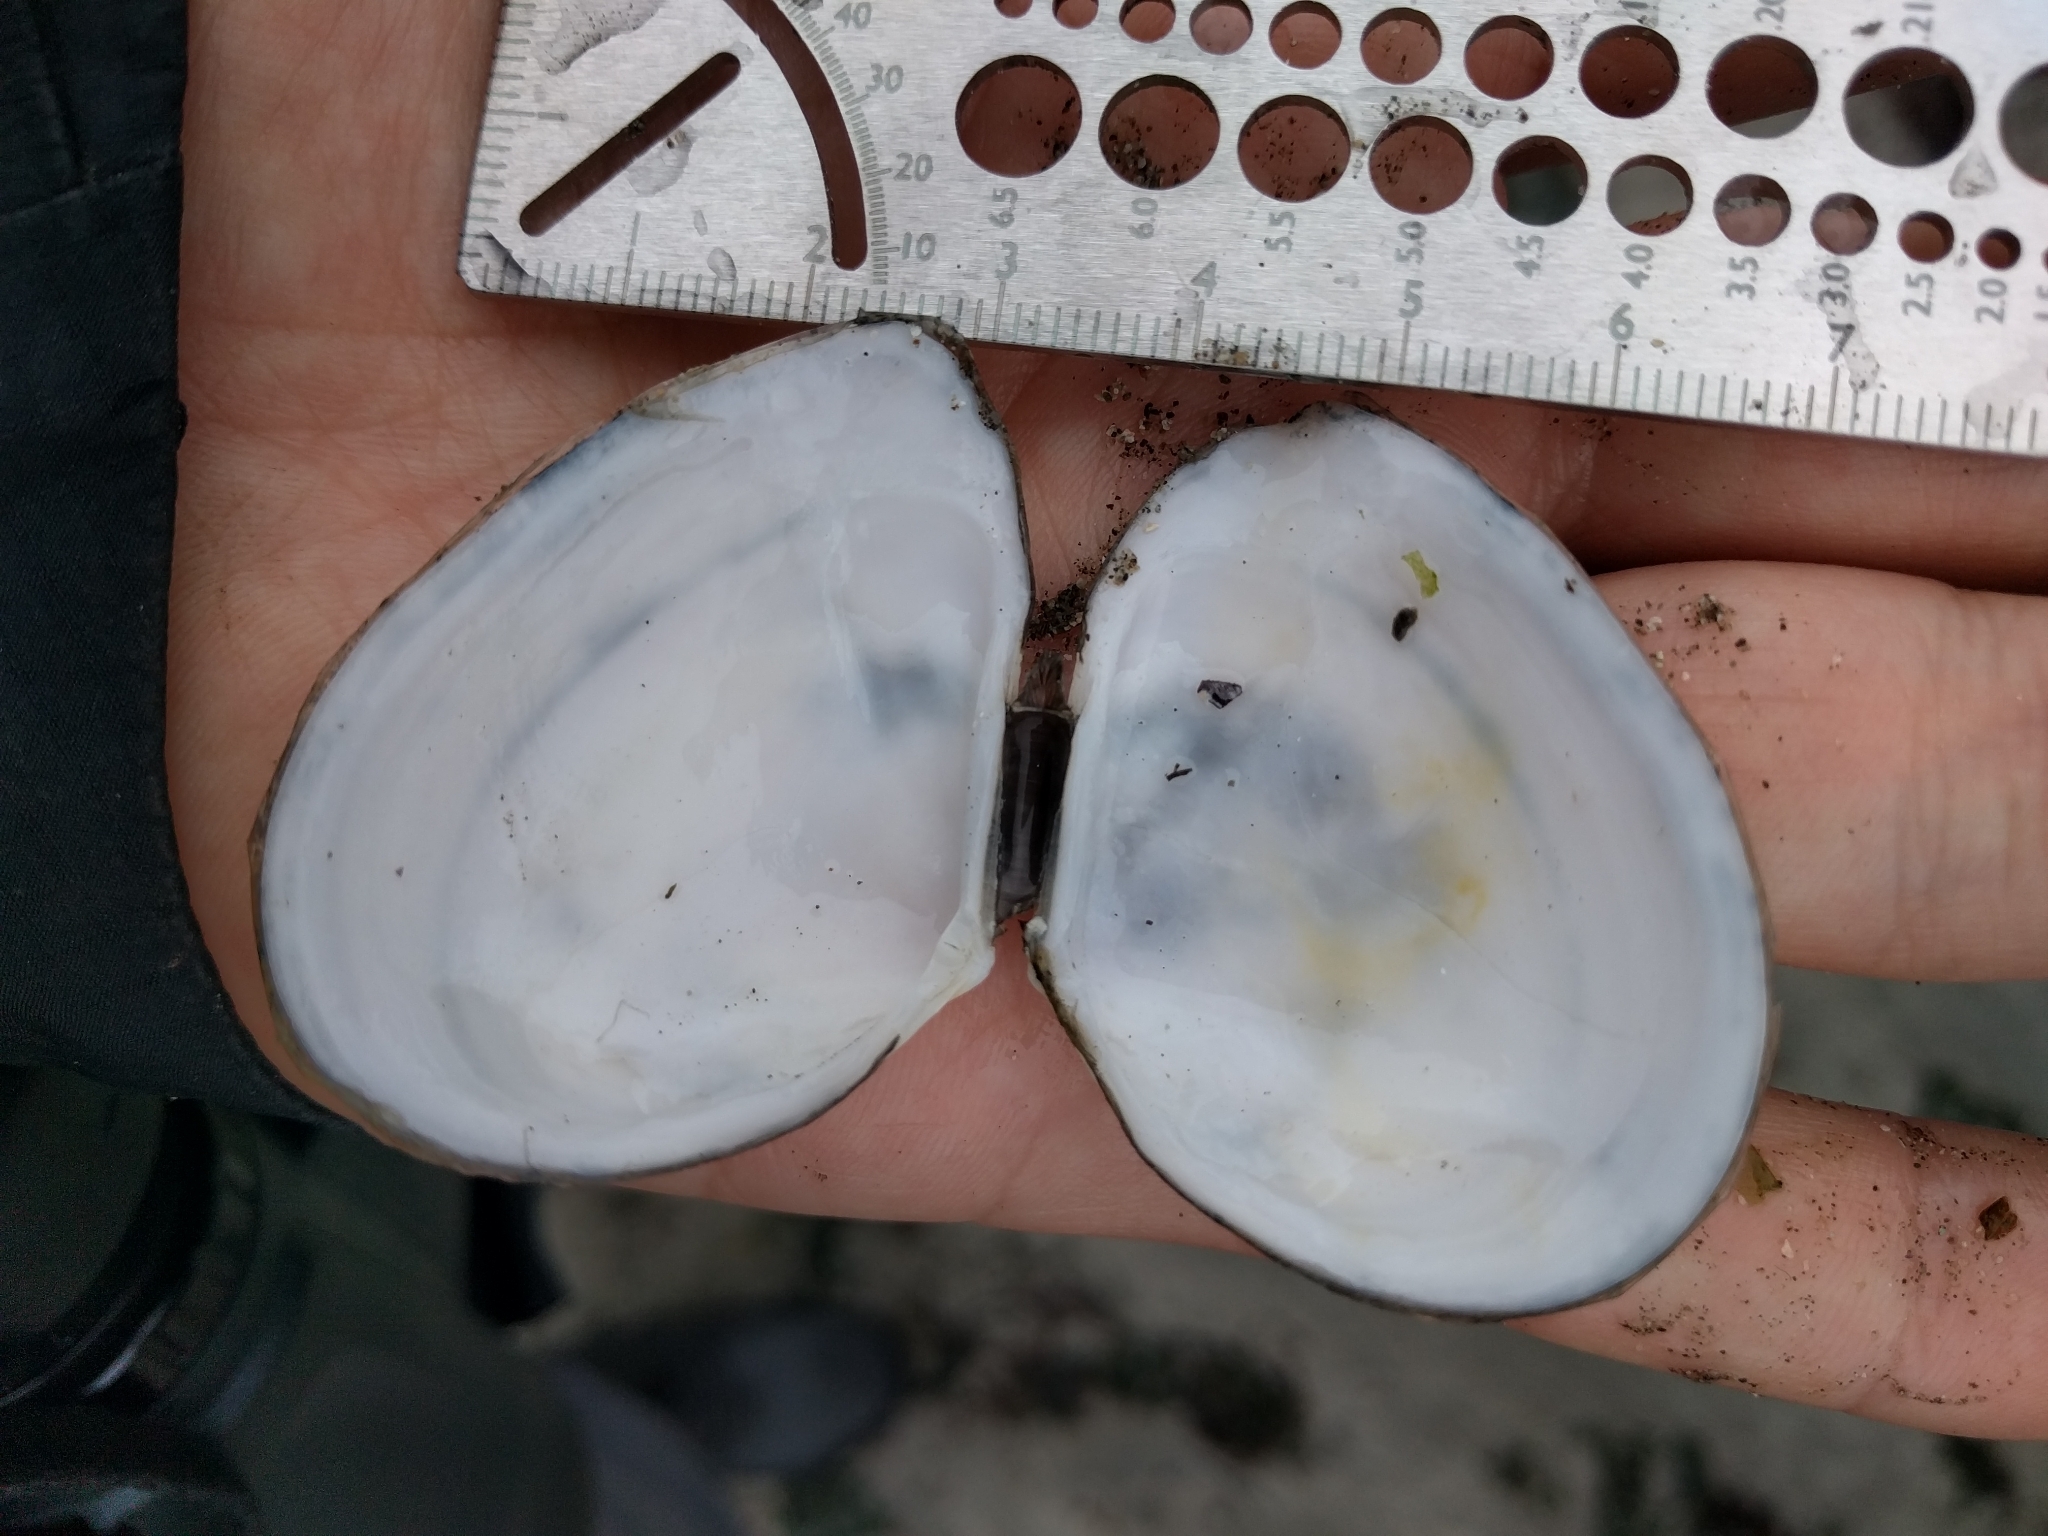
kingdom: Animalia
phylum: Mollusca
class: Bivalvia
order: Cardiida
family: Tellinidae
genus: Macoma
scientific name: Macoma nasuta
